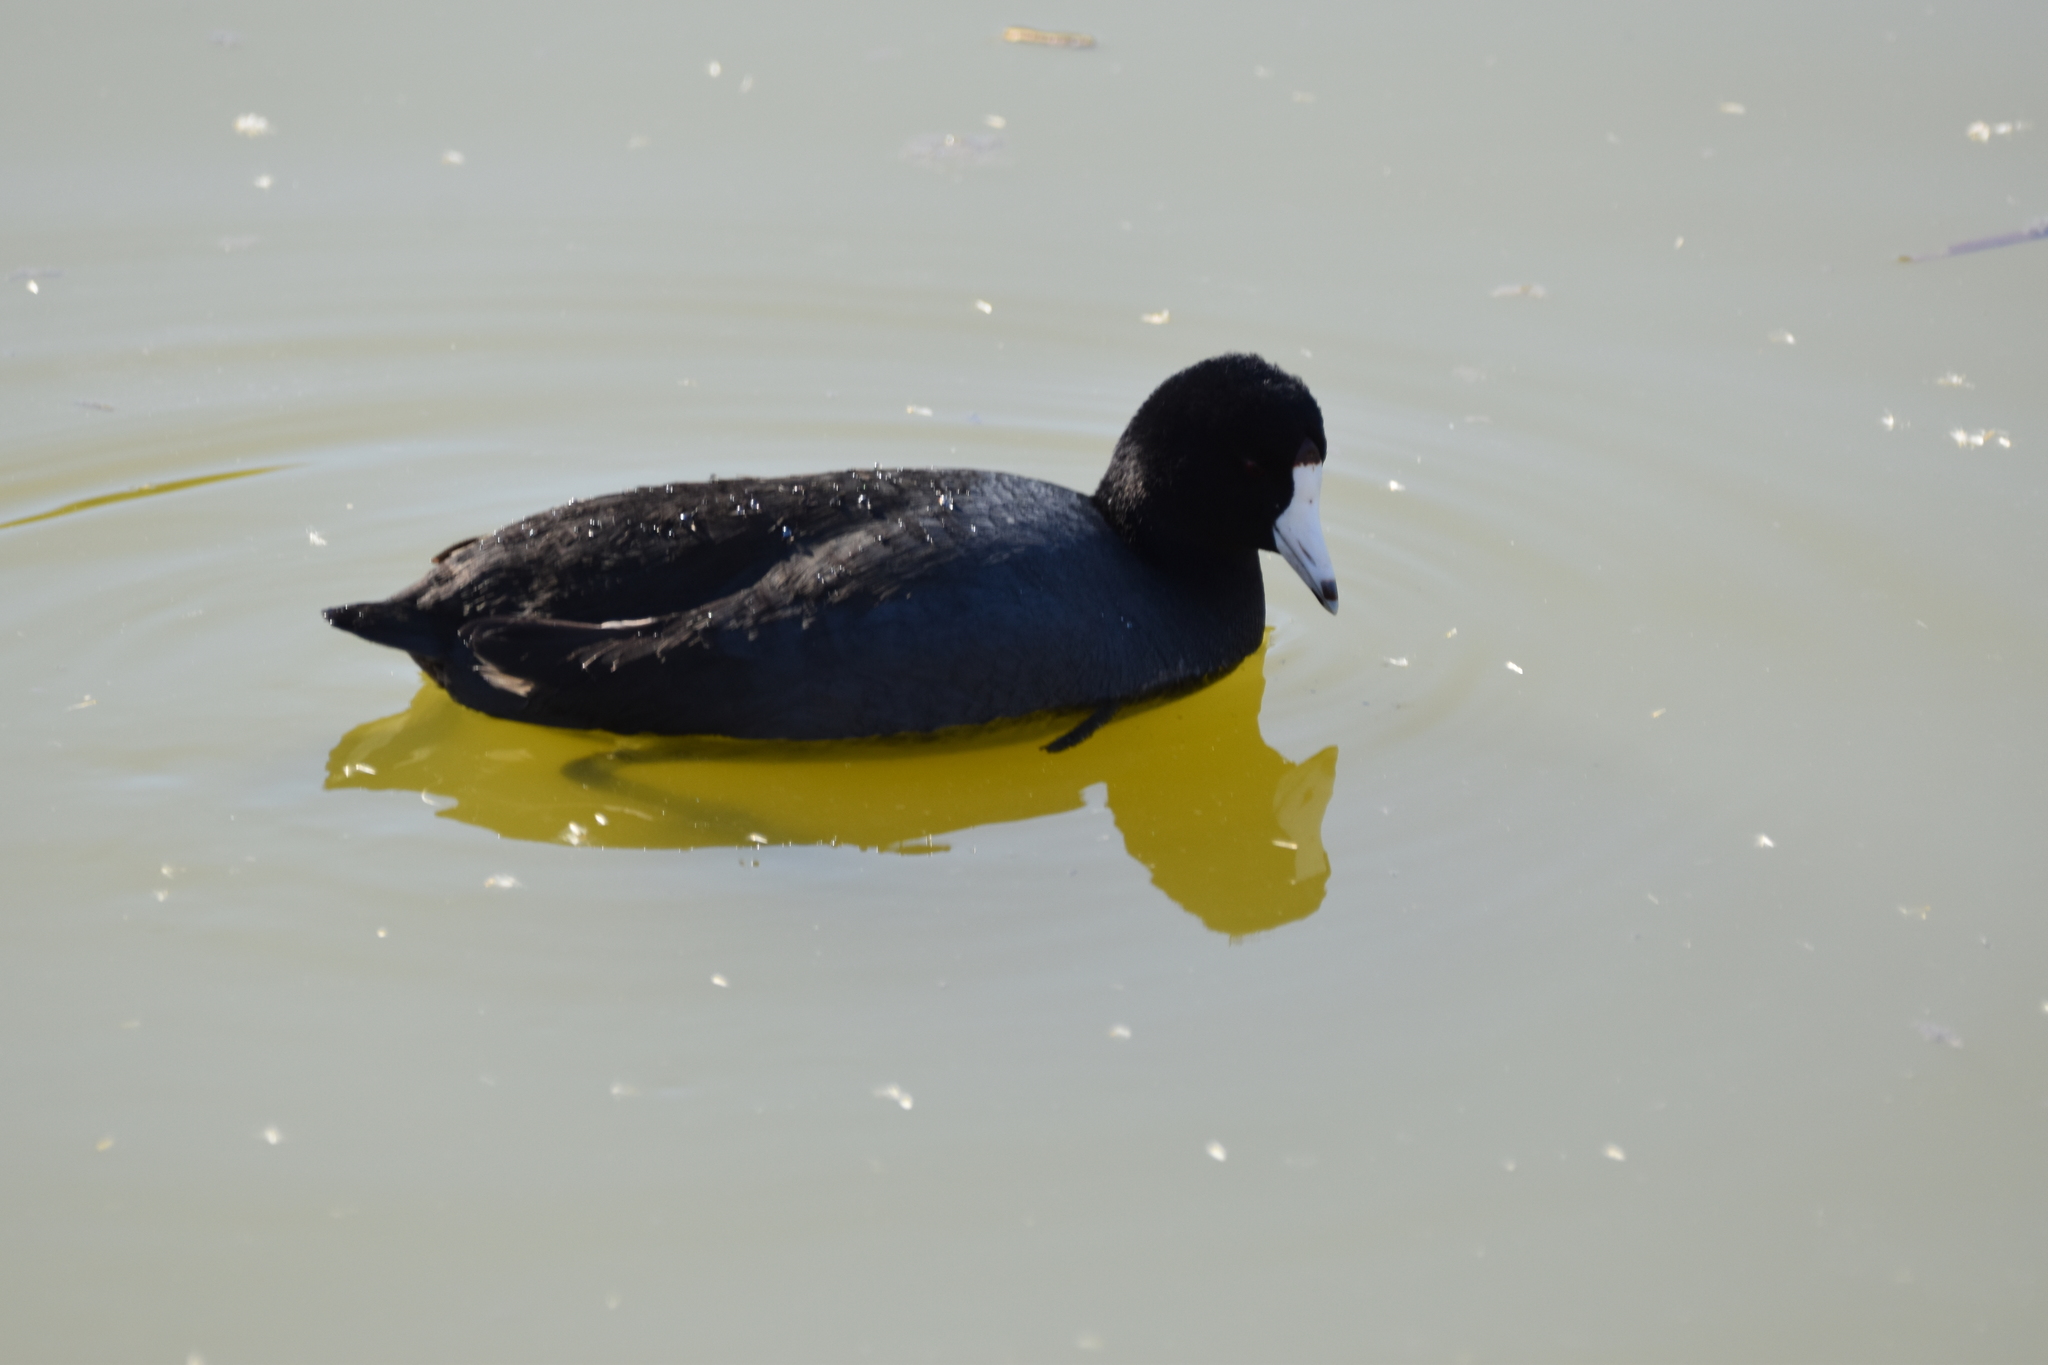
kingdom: Animalia
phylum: Chordata
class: Aves
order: Gruiformes
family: Rallidae
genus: Fulica
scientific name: Fulica americana
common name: American coot
